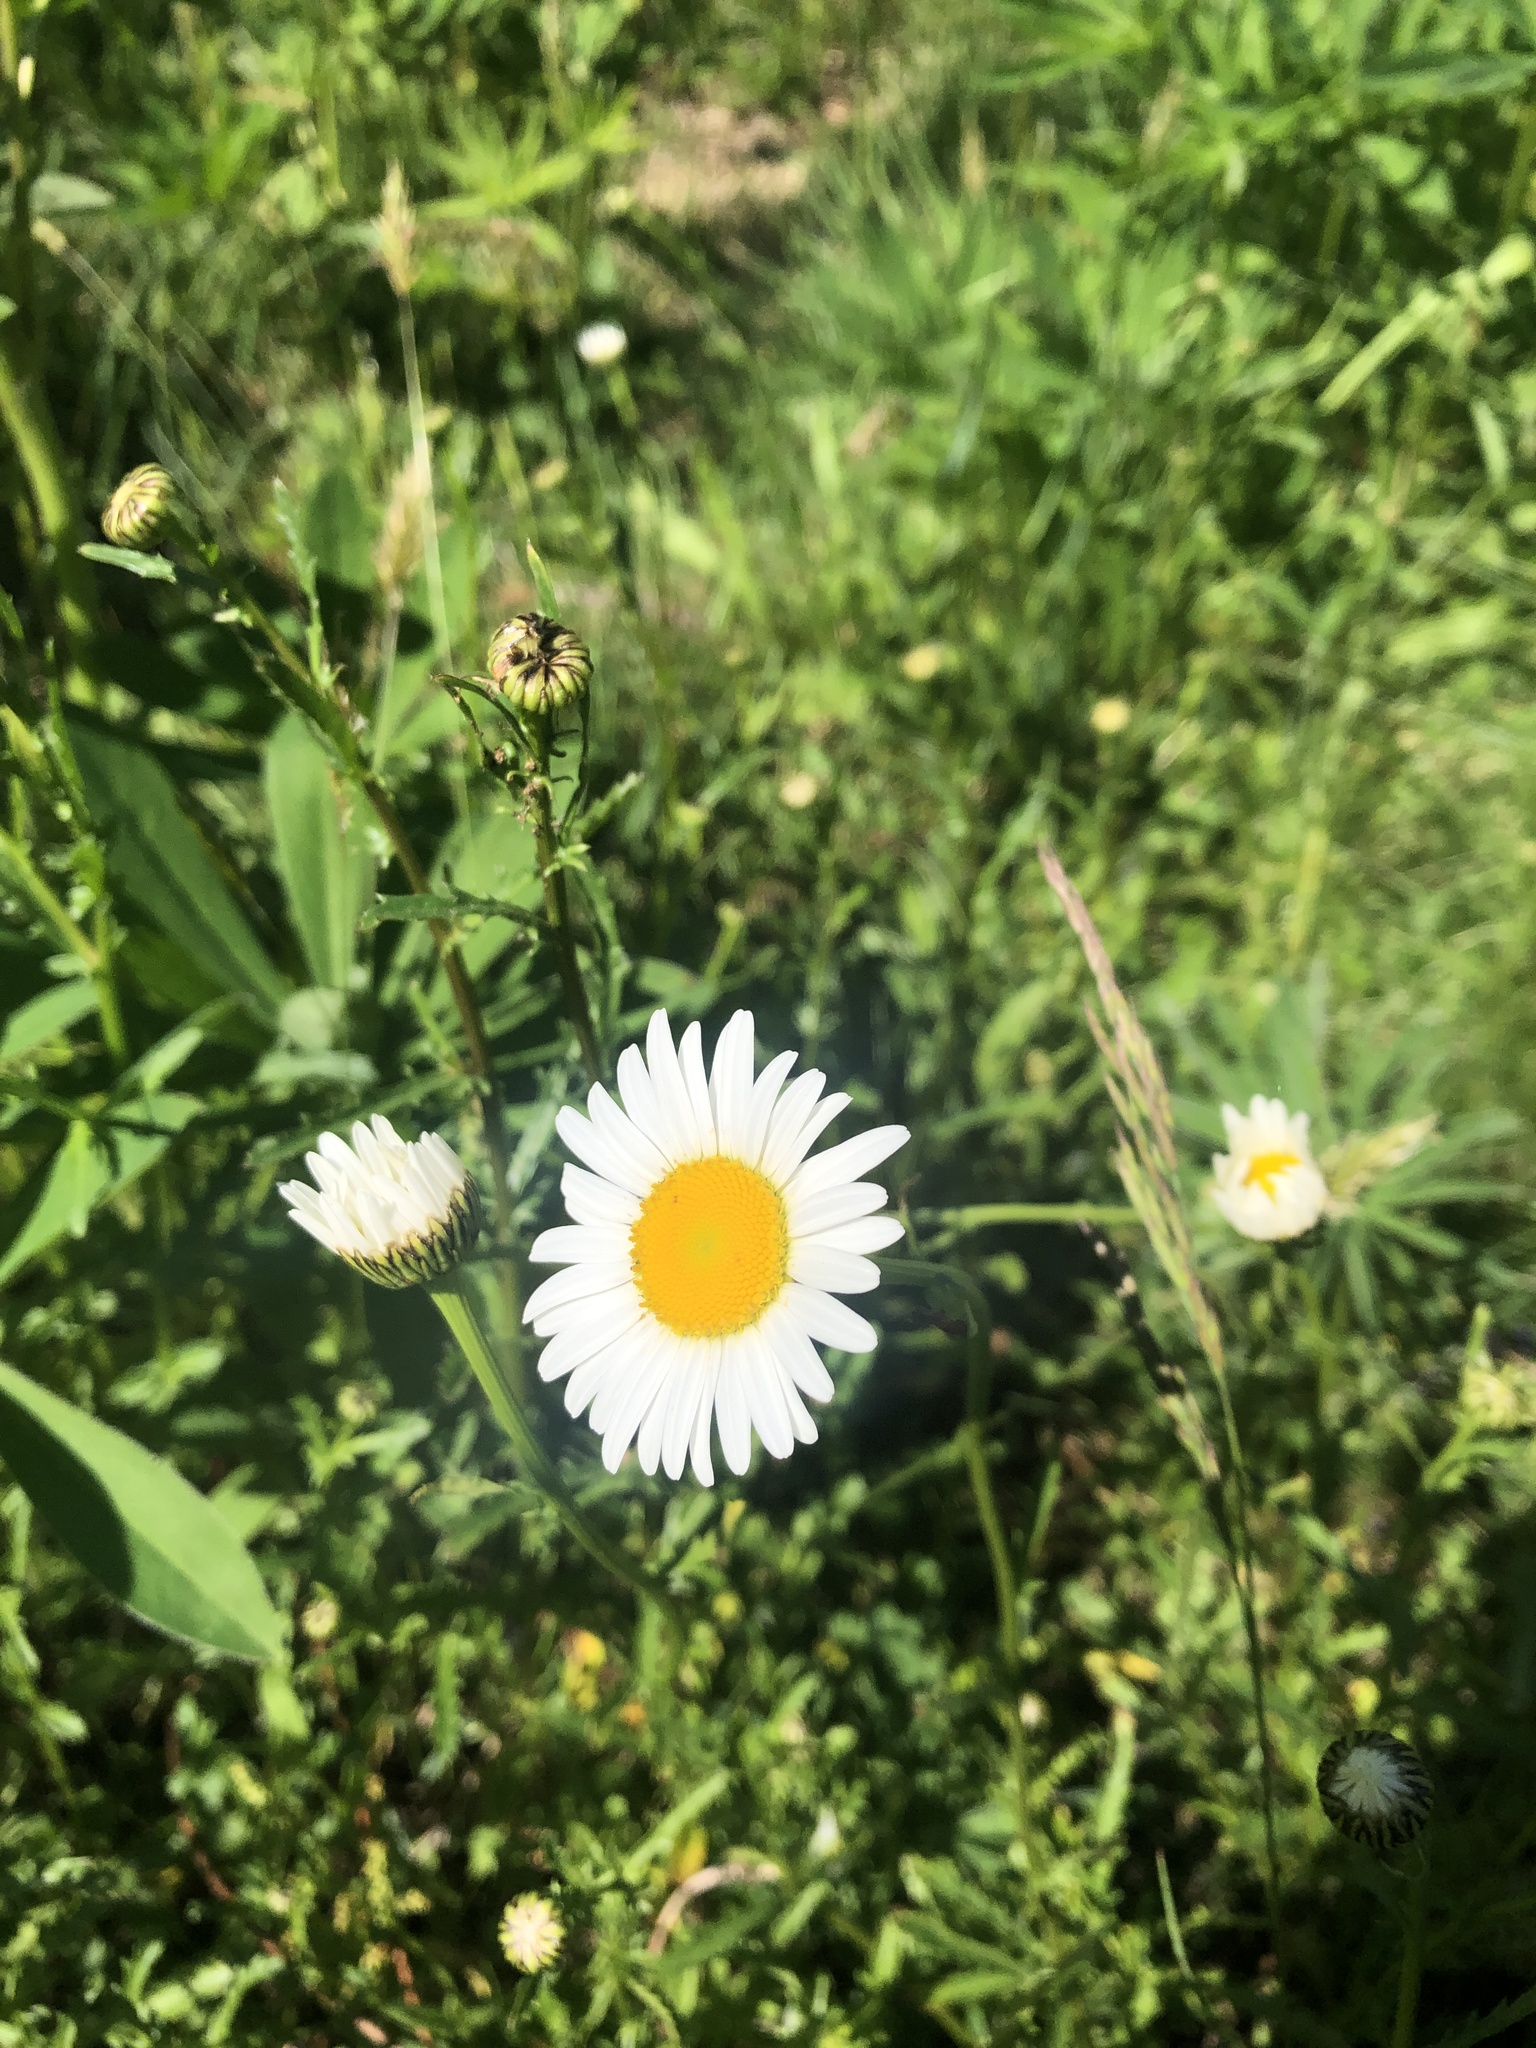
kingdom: Plantae
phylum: Tracheophyta
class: Magnoliopsida
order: Asterales
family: Asteraceae
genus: Leucanthemum
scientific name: Leucanthemum vulgare
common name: Oxeye daisy
